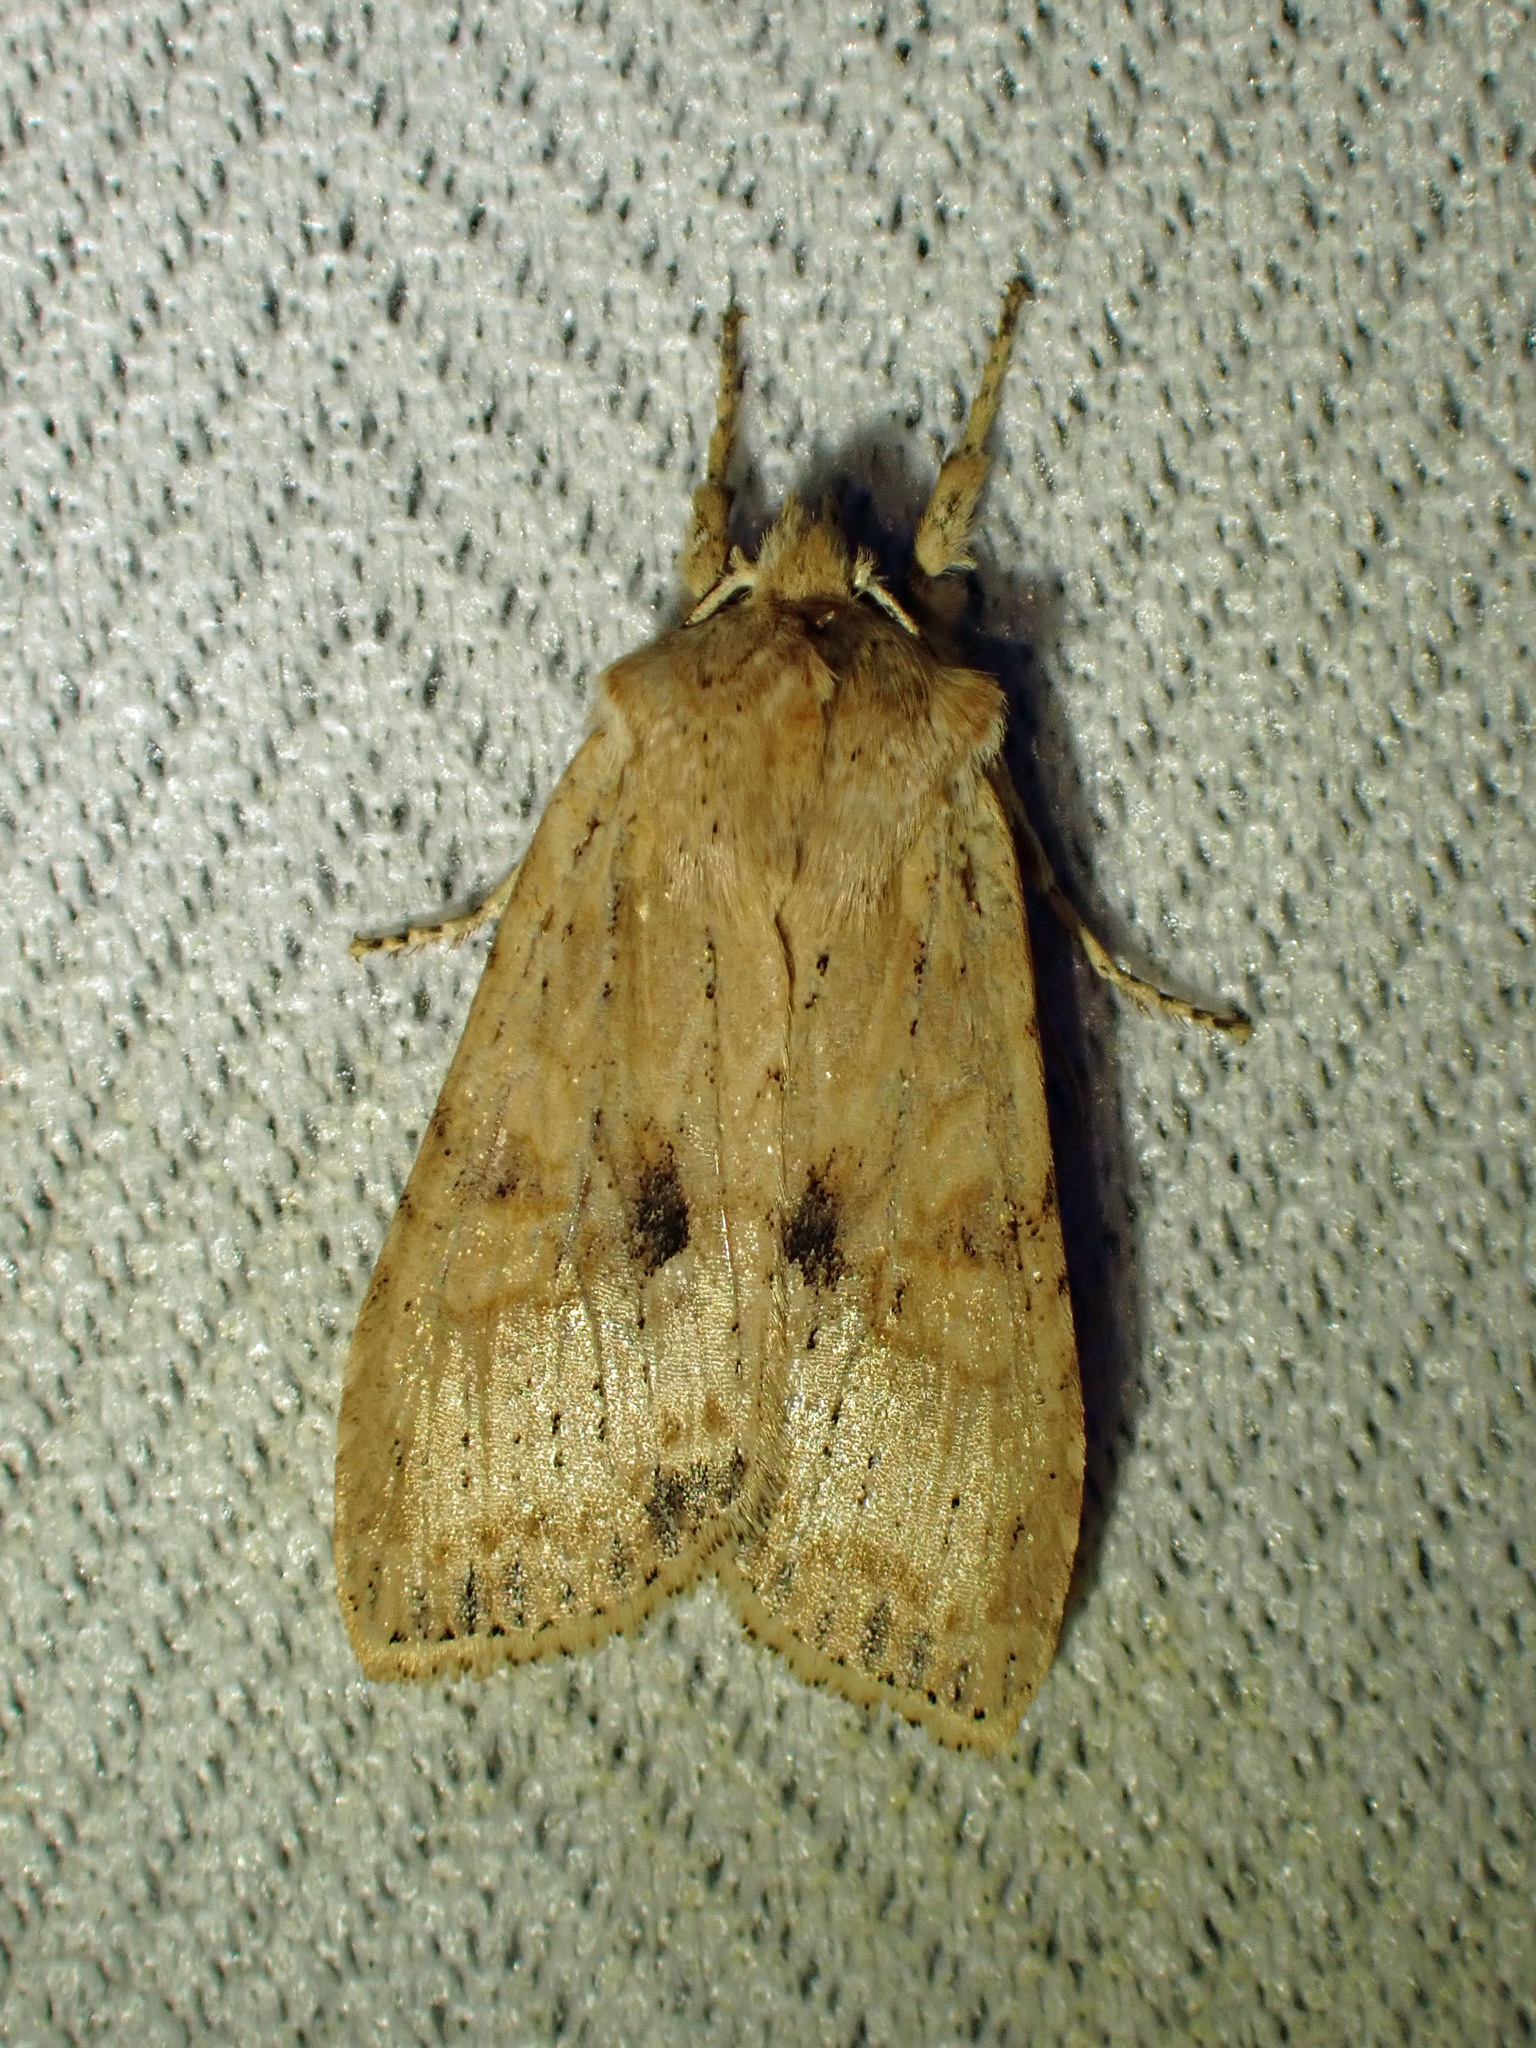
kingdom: Animalia
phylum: Arthropoda
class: Insecta
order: Lepidoptera
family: Noctuidae
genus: Lithophane
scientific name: Lithophane innominata
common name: Nameless pinion moth
